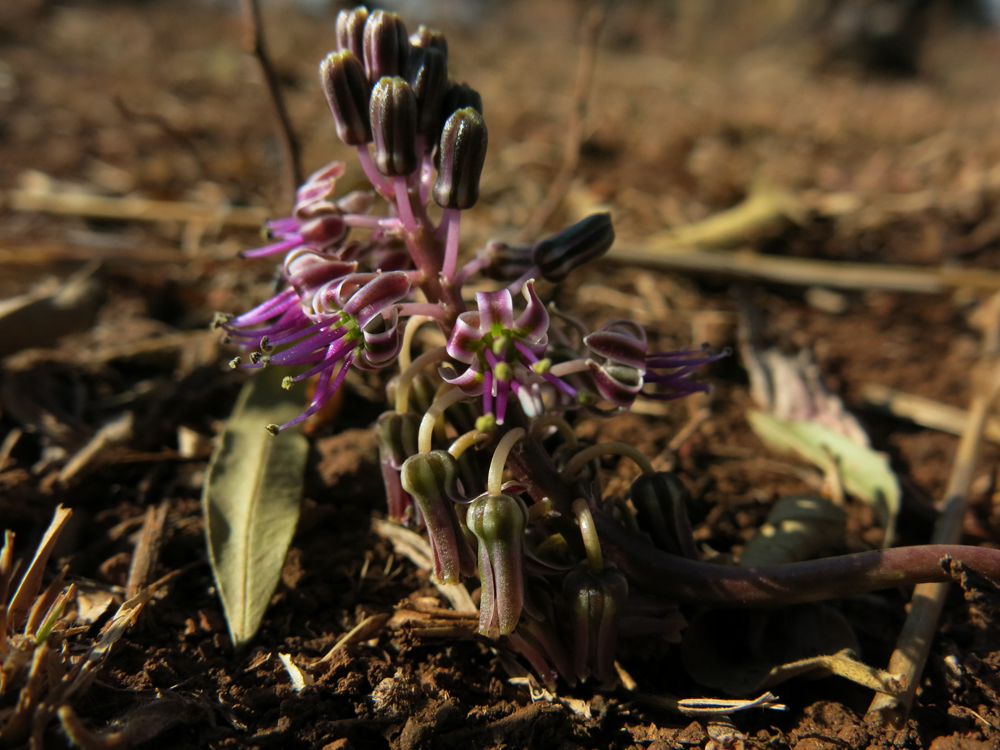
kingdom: Plantae
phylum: Tracheophyta
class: Liliopsida
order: Asparagales
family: Asparagaceae
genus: Ledebouria
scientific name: Ledebouria ovatifolia
